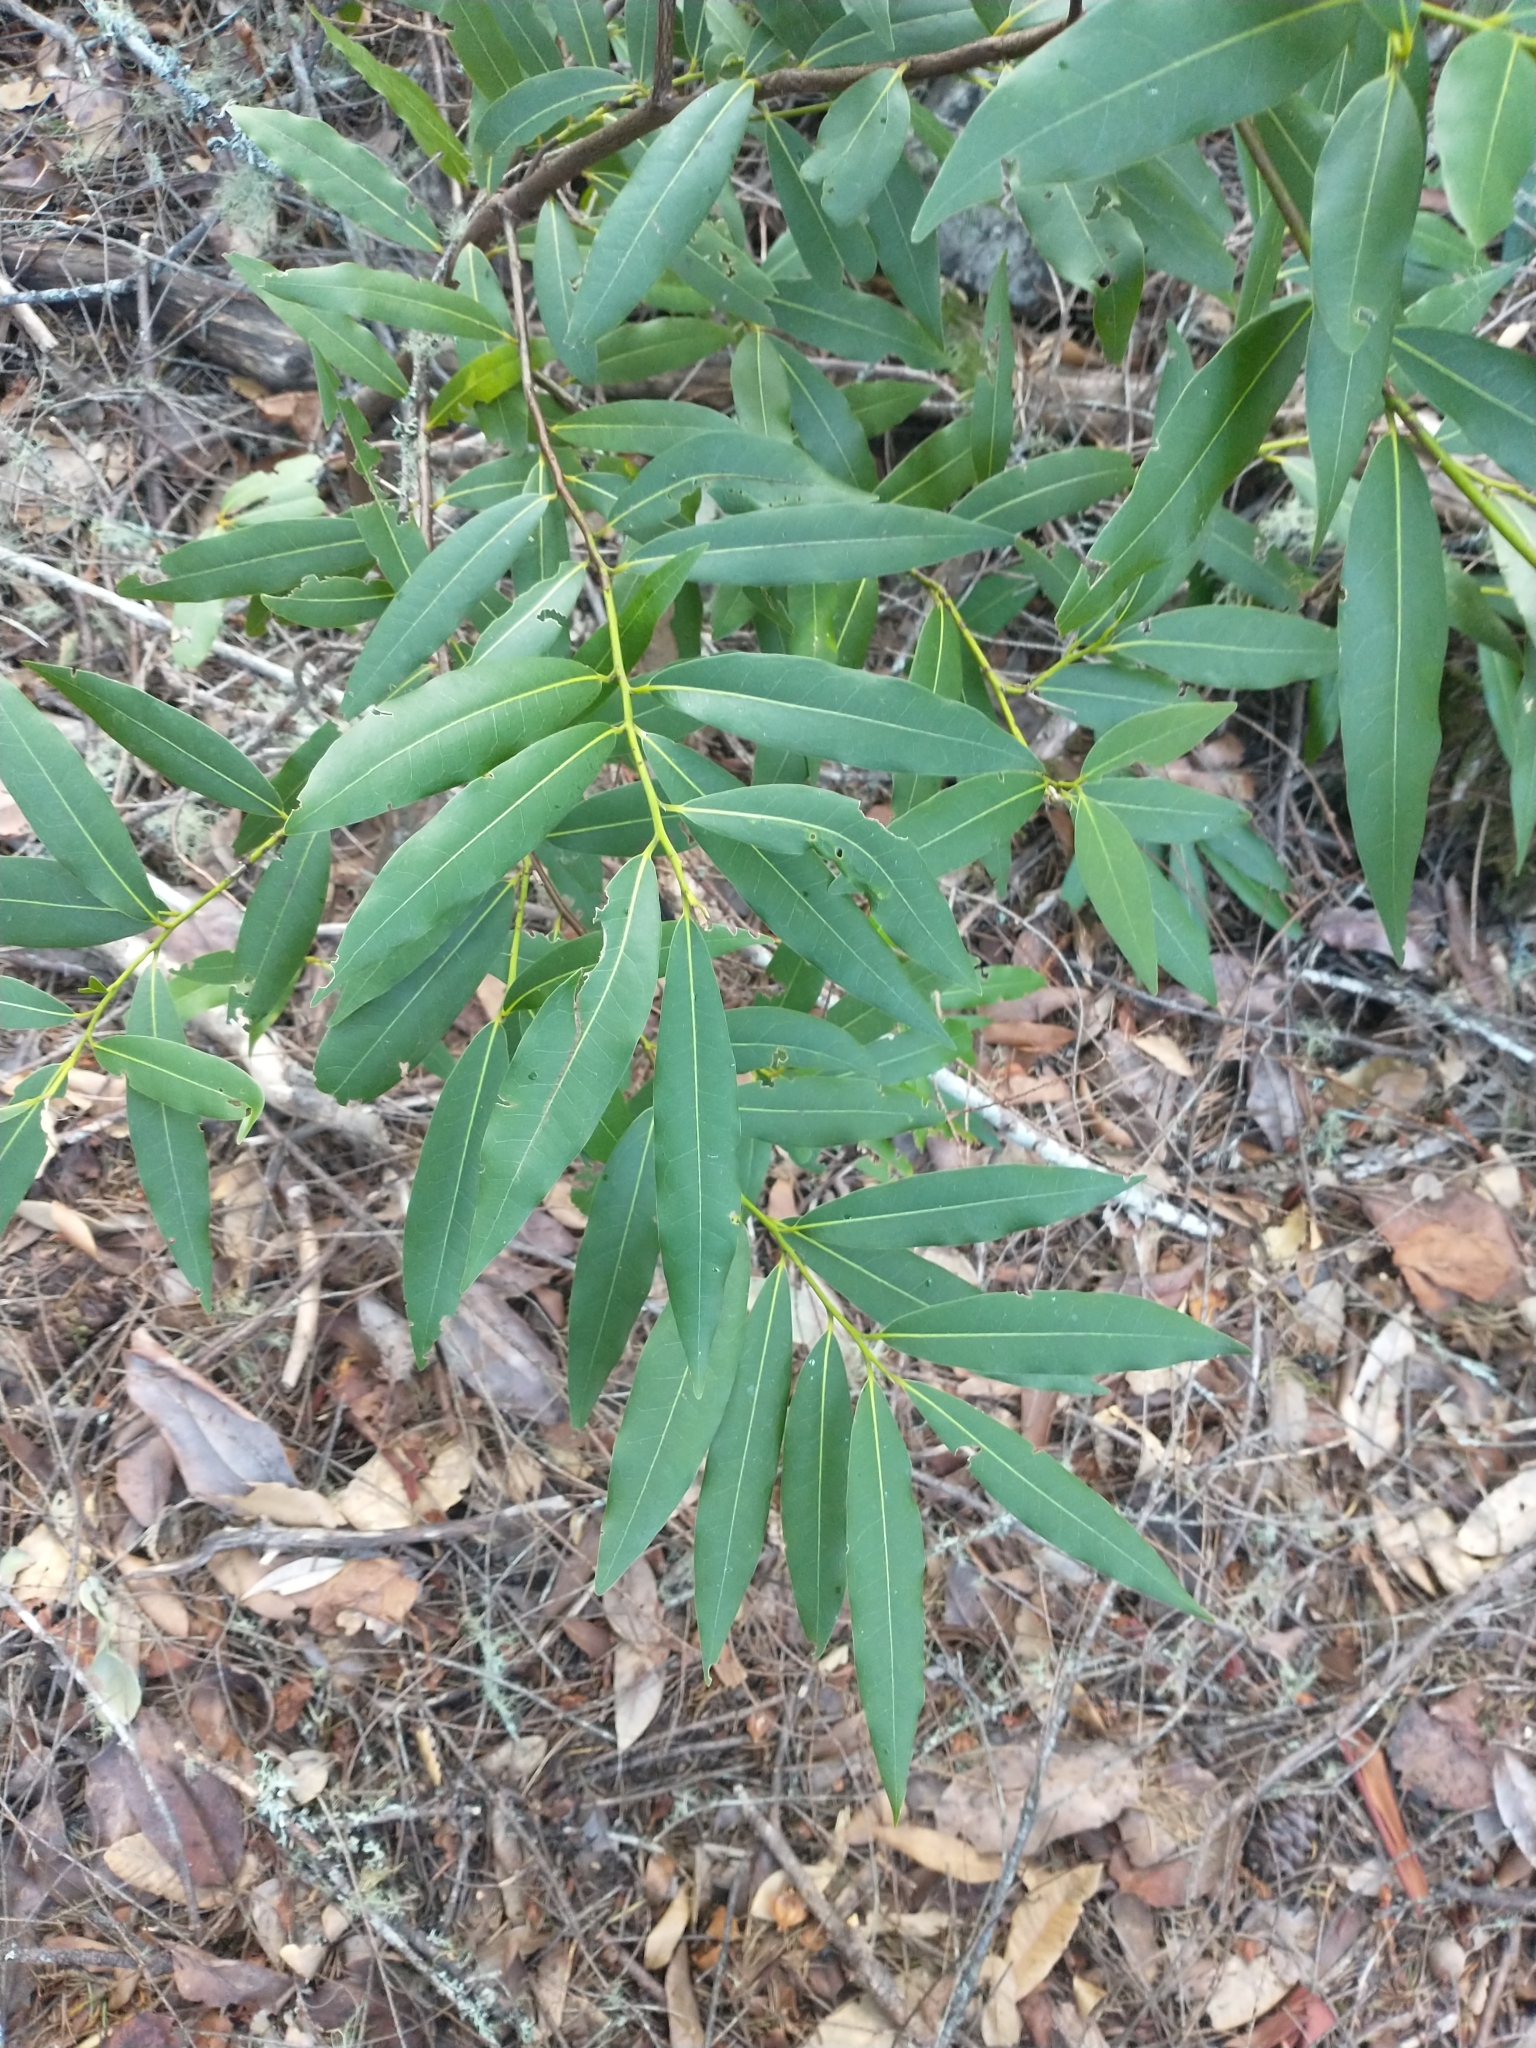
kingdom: Plantae
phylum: Tracheophyta
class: Magnoliopsida
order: Laurales
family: Lauraceae
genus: Umbellularia
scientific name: Umbellularia californica
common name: California bay
